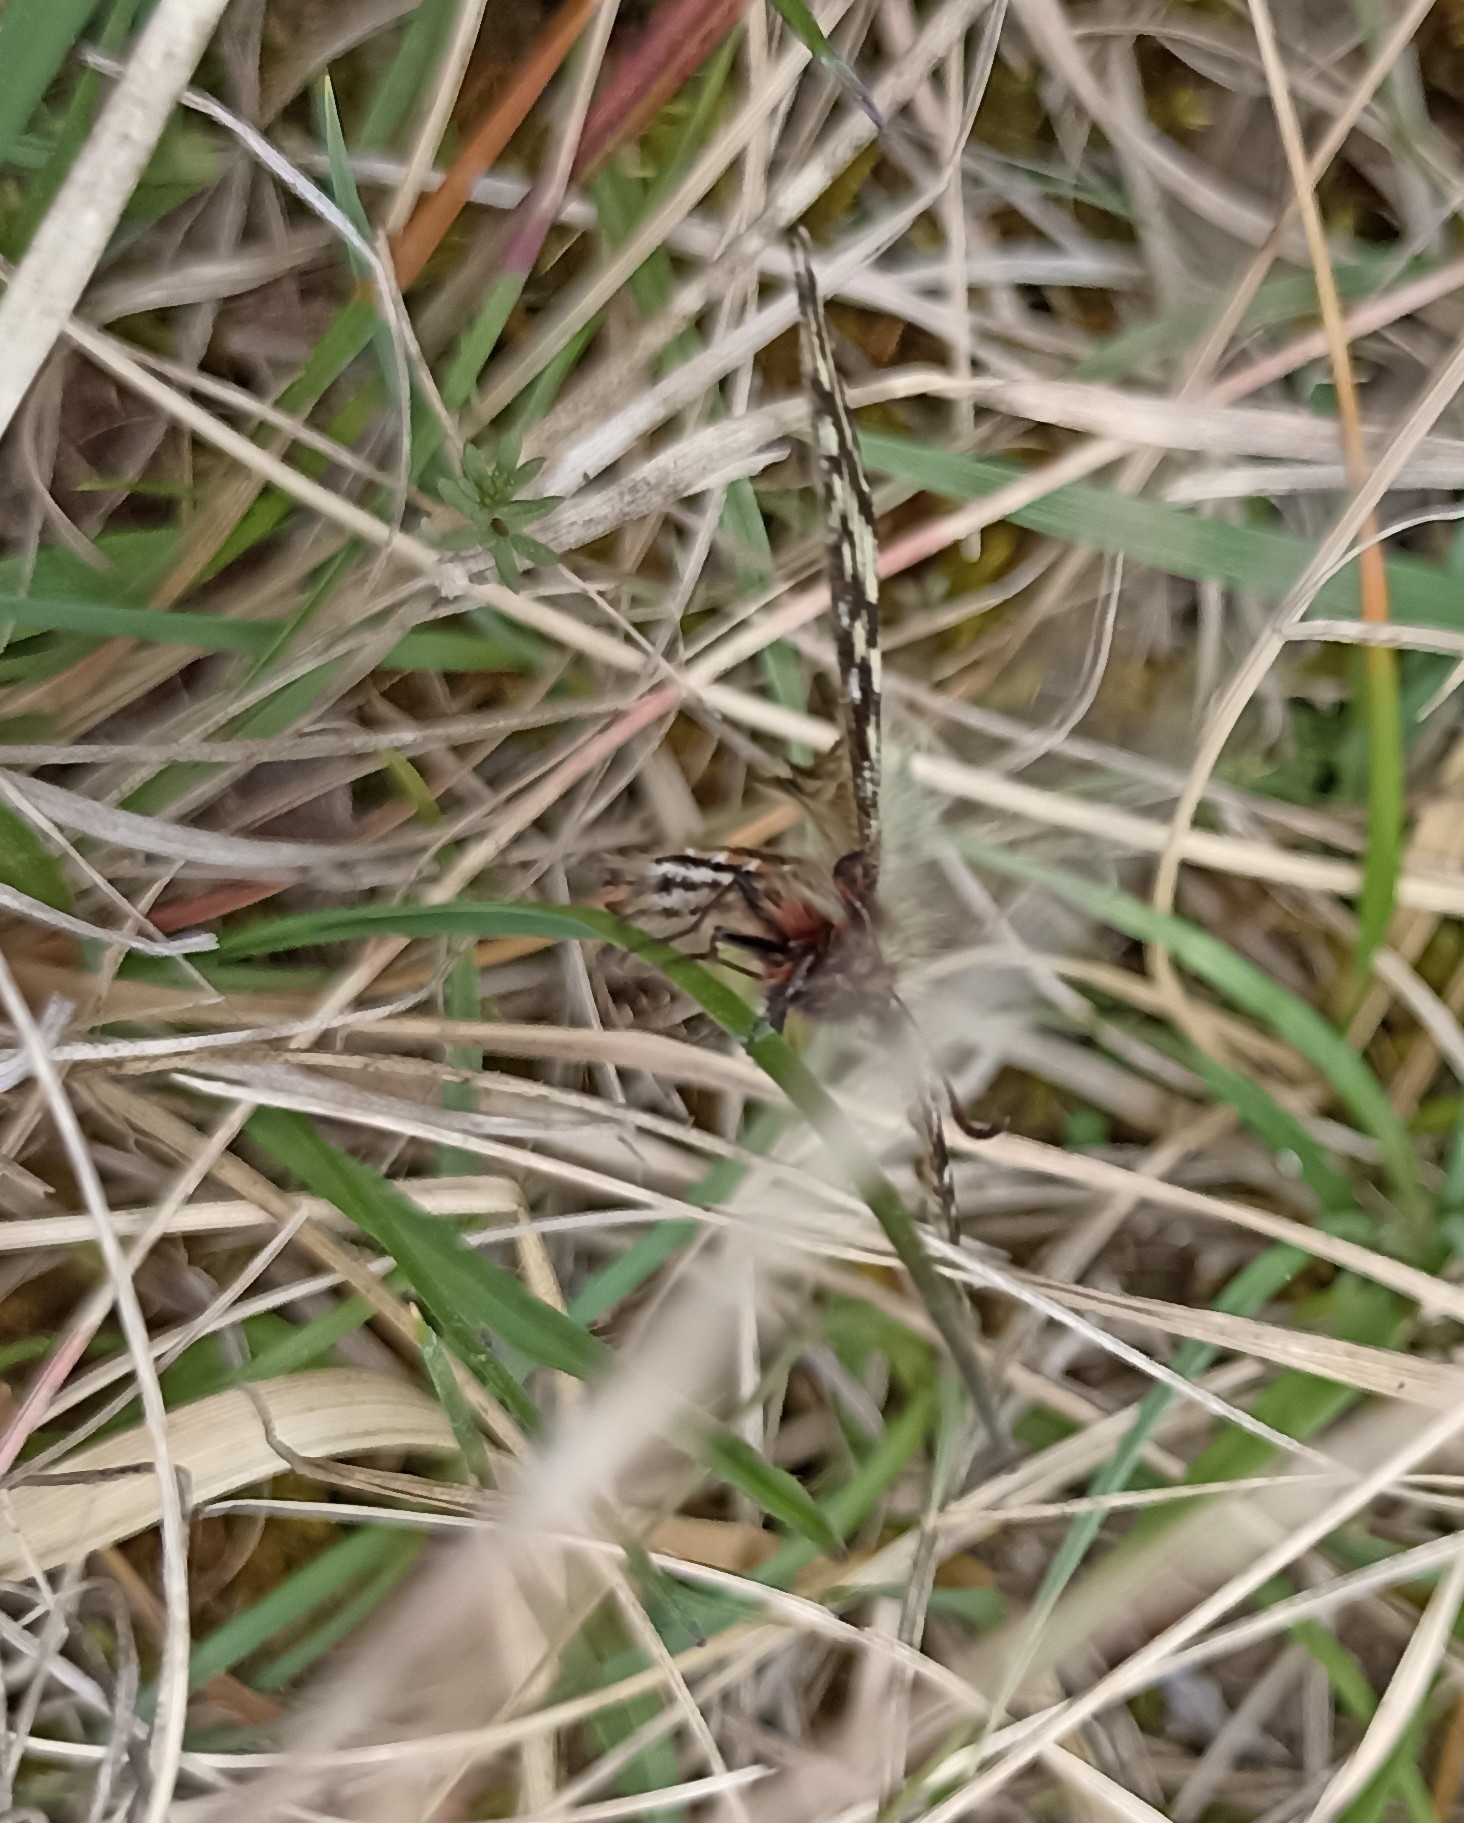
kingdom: Animalia
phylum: Arthropoda
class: Insecta
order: Lepidoptera
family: Papilionidae
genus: Zerynthia
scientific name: Zerynthia polyxena
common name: Southern festoon
